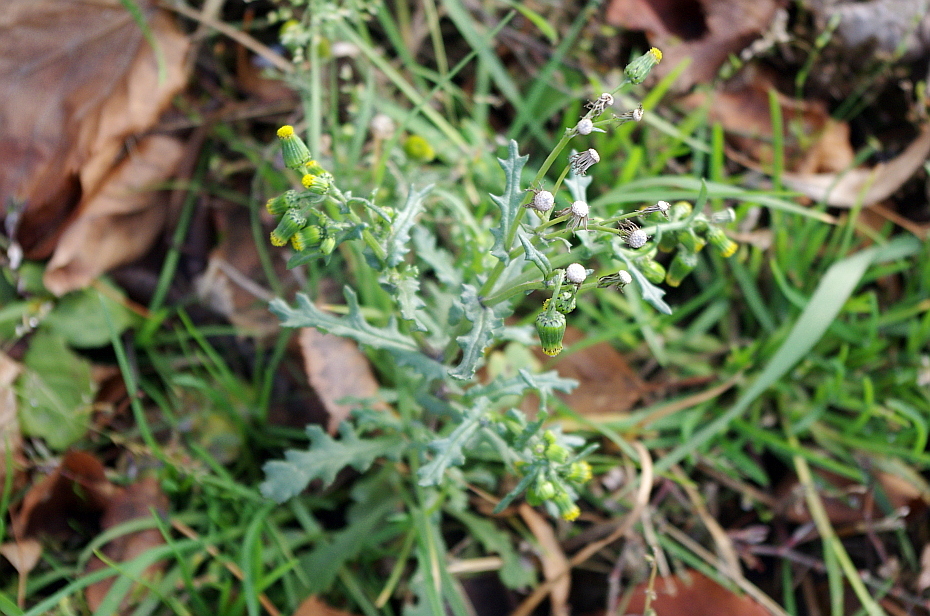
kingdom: Plantae
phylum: Tracheophyta
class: Magnoliopsida
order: Asterales
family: Asteraceae
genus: Senecio
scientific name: Senecio vulgaris
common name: Old-man-in-the-spring
